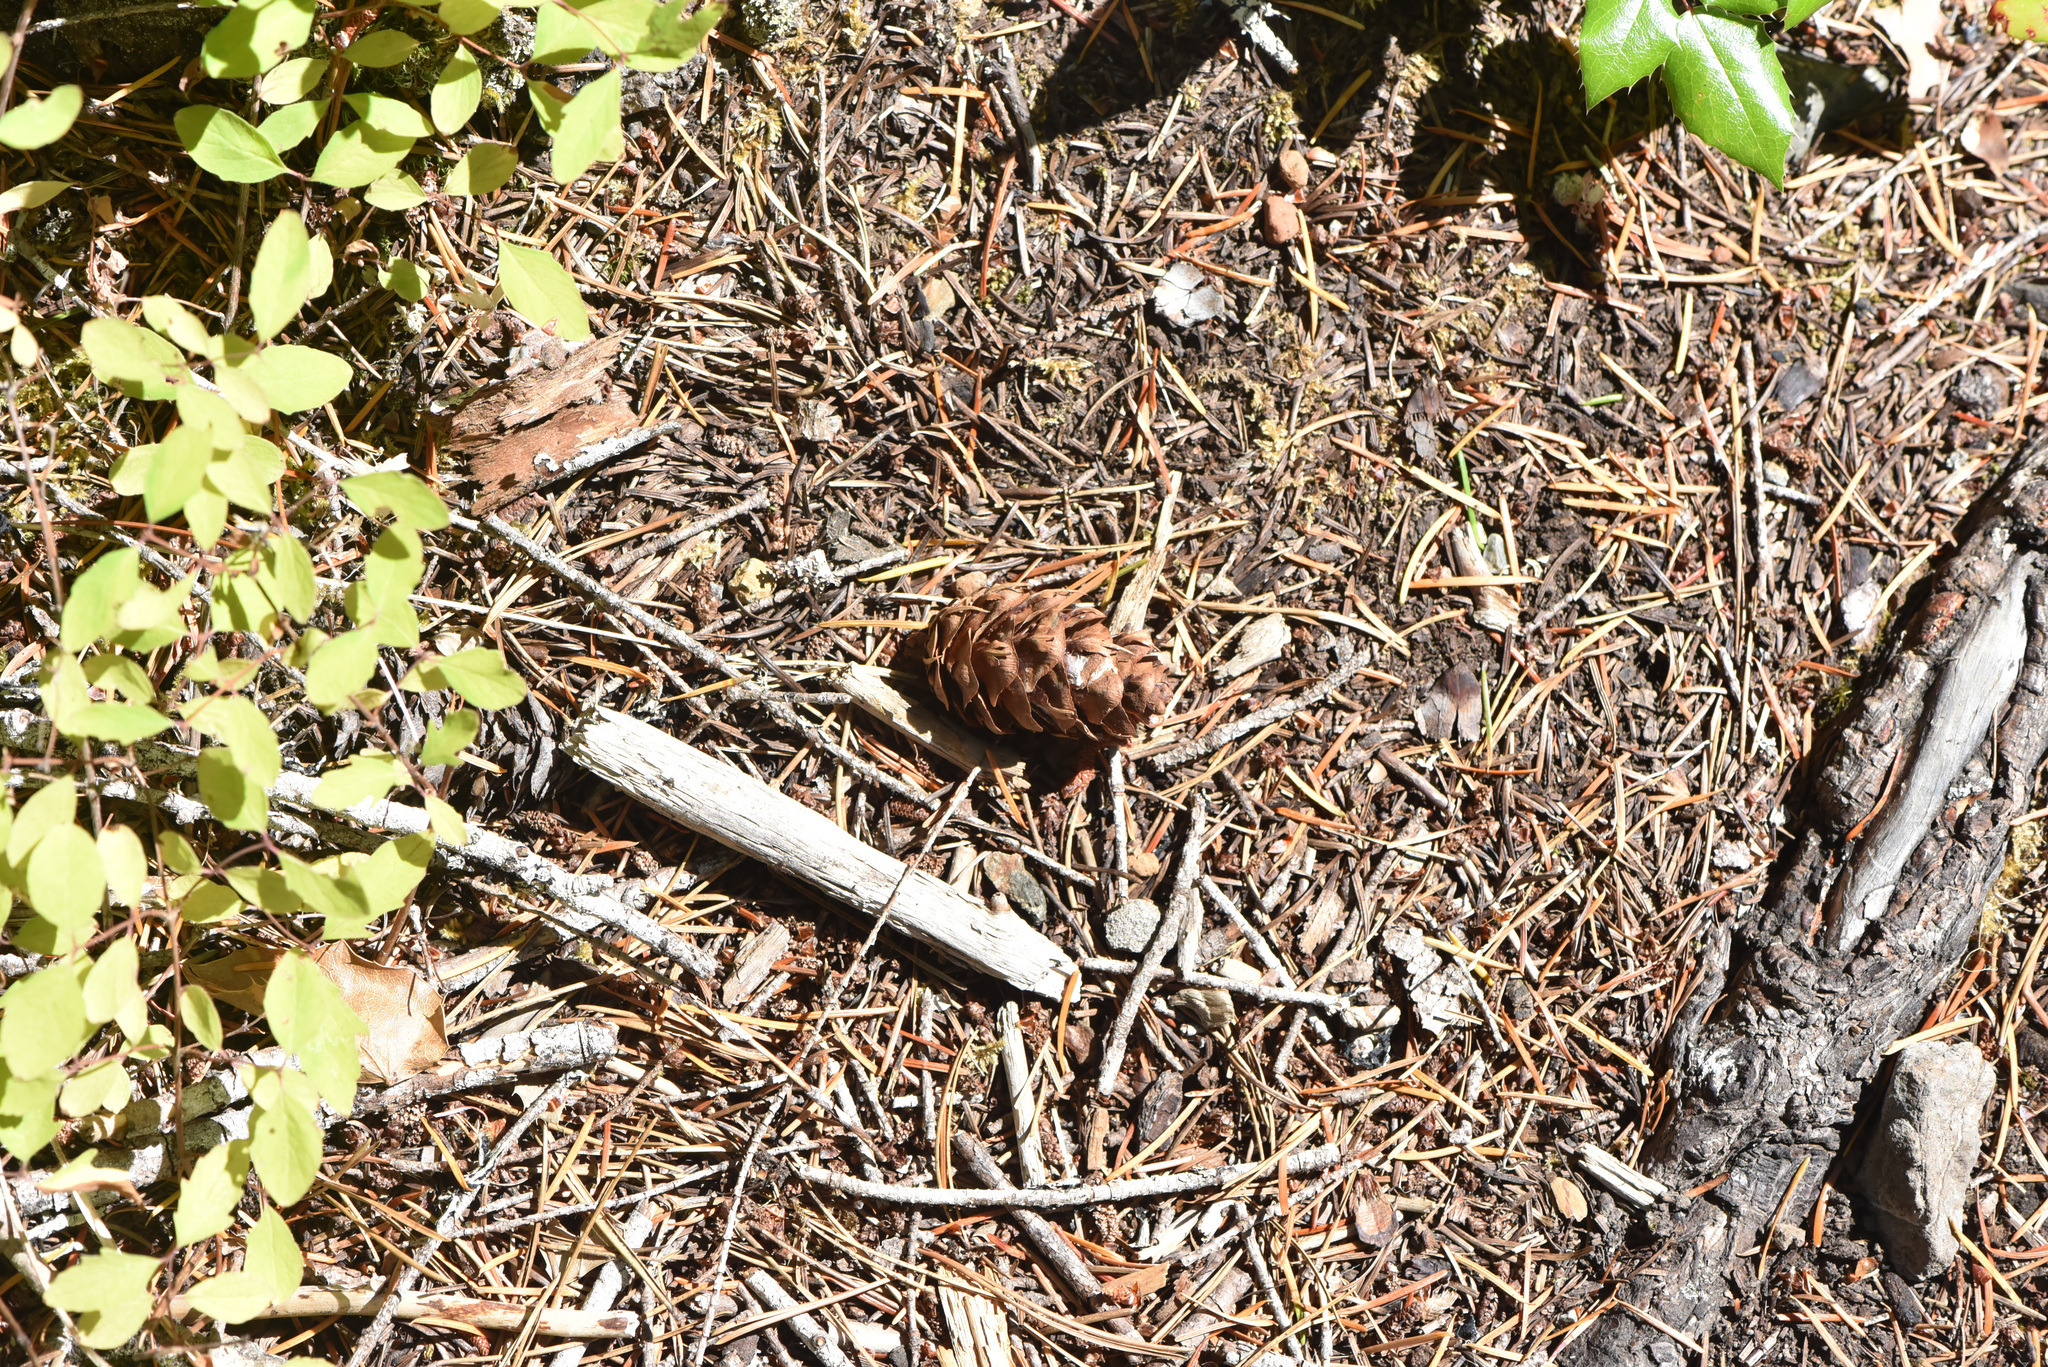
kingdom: Plantae
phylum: Tracheophyta
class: Pinopsida
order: Pinales
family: Pinaceae
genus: Pseudotsuga
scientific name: Pseudotsuga menziesii
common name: Douglas fir
